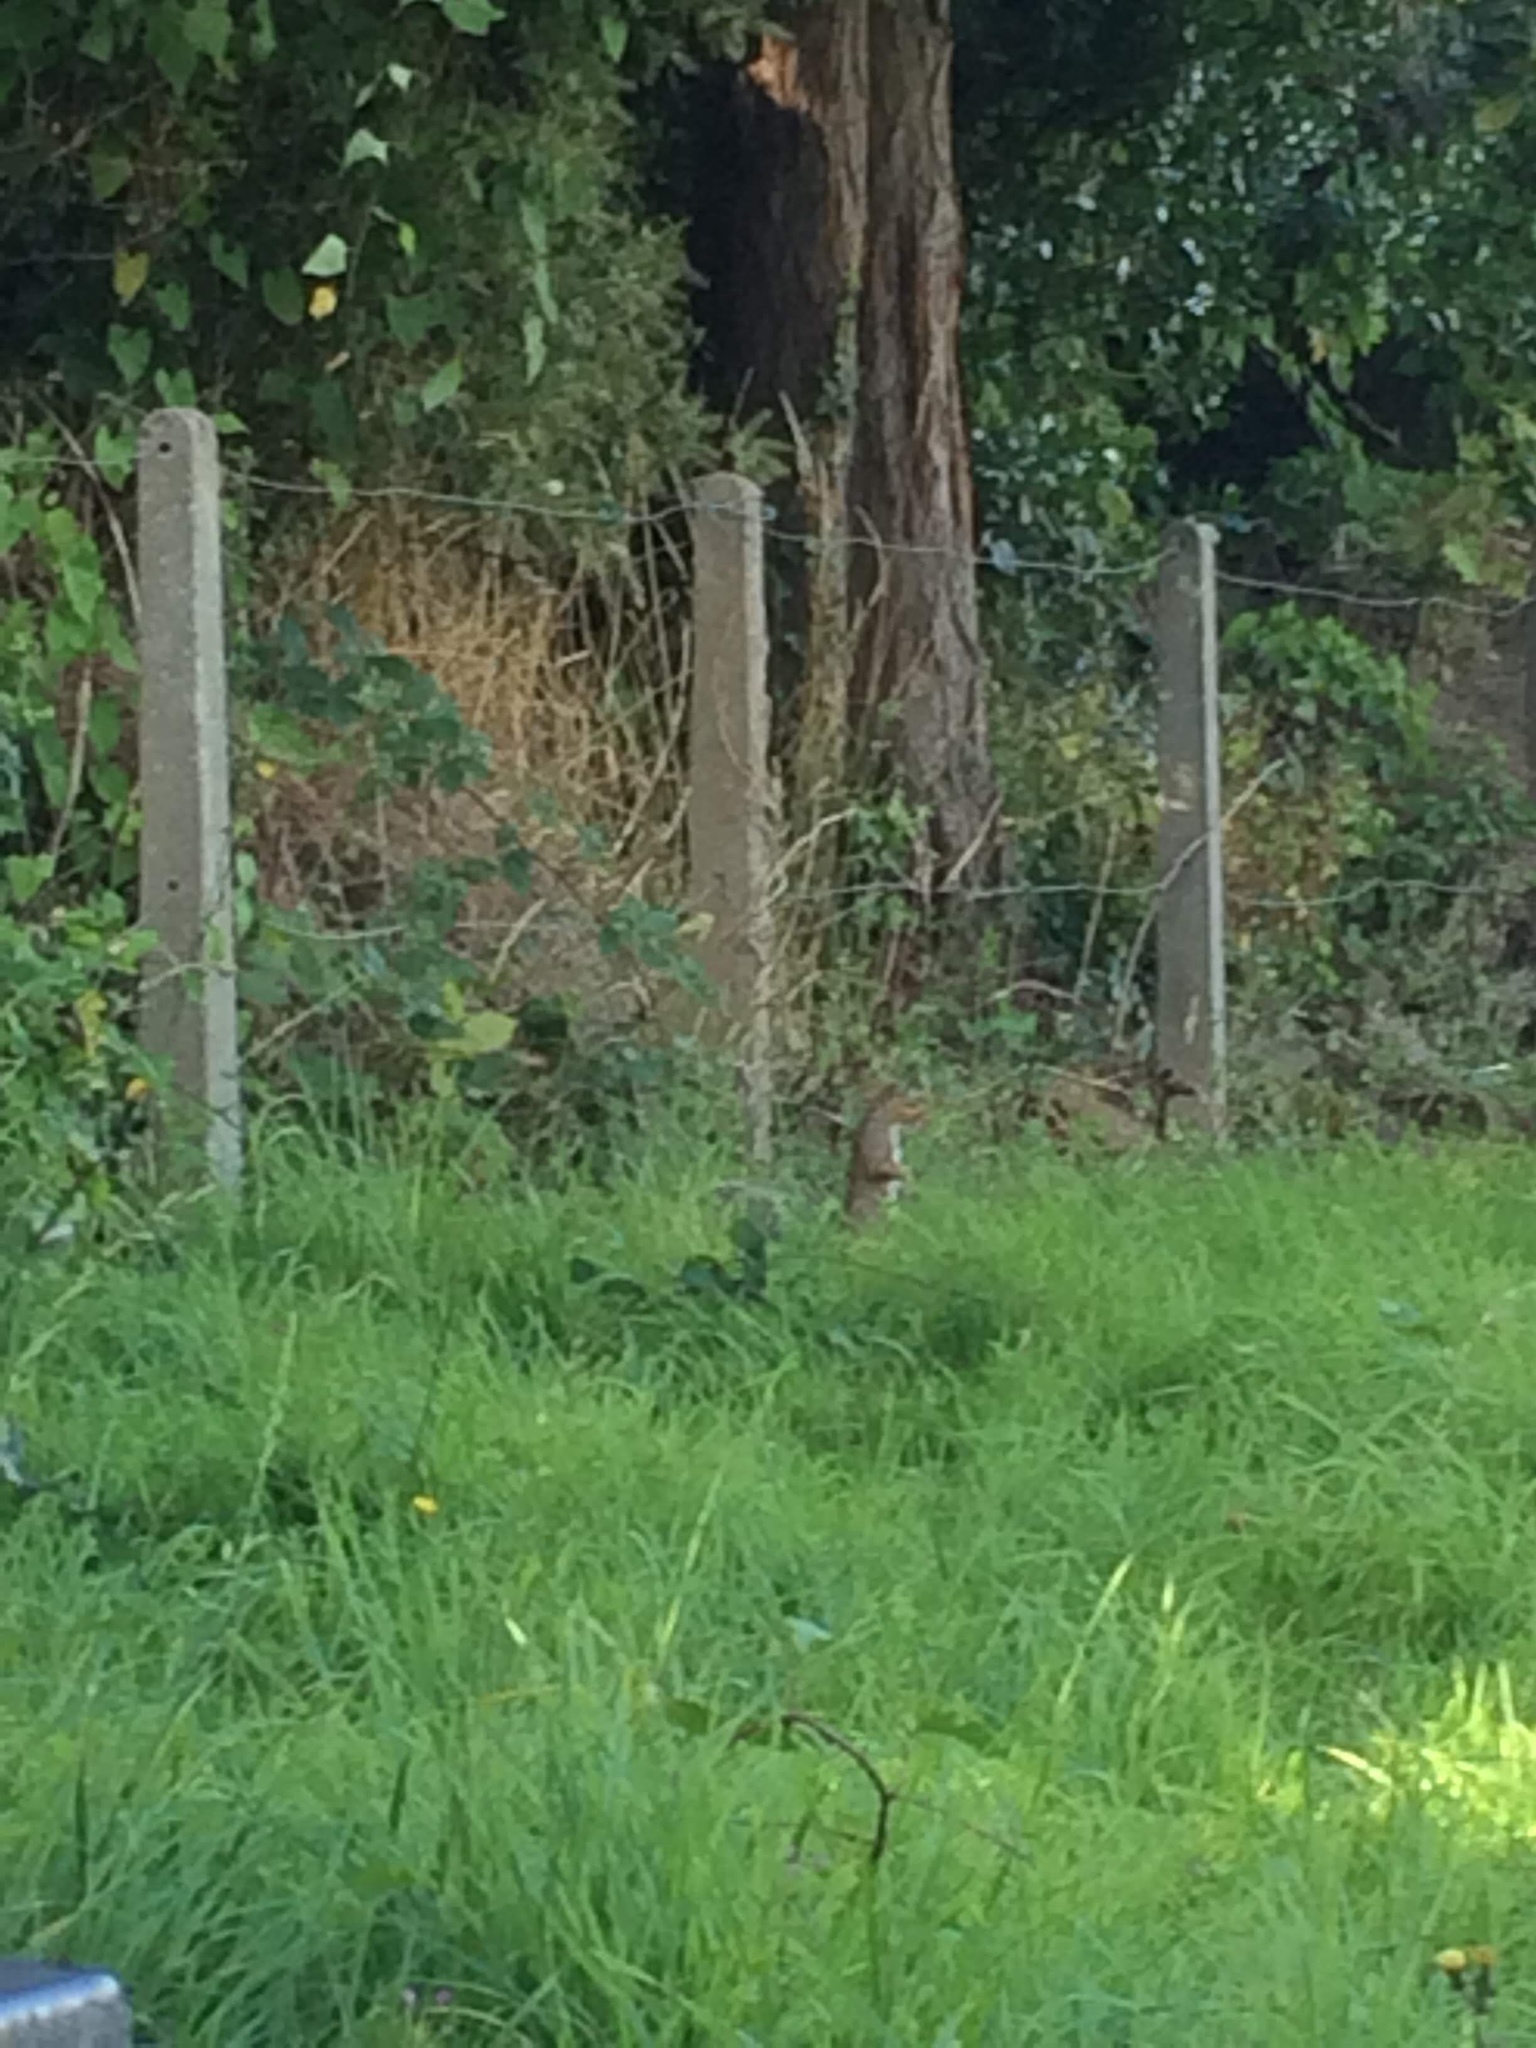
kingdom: Animalia
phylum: Chordata
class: Mammalia
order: Rodentia
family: Sciuridae
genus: Sciurus
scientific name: Sciurus carolinensis
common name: Eastern gray squirrel
